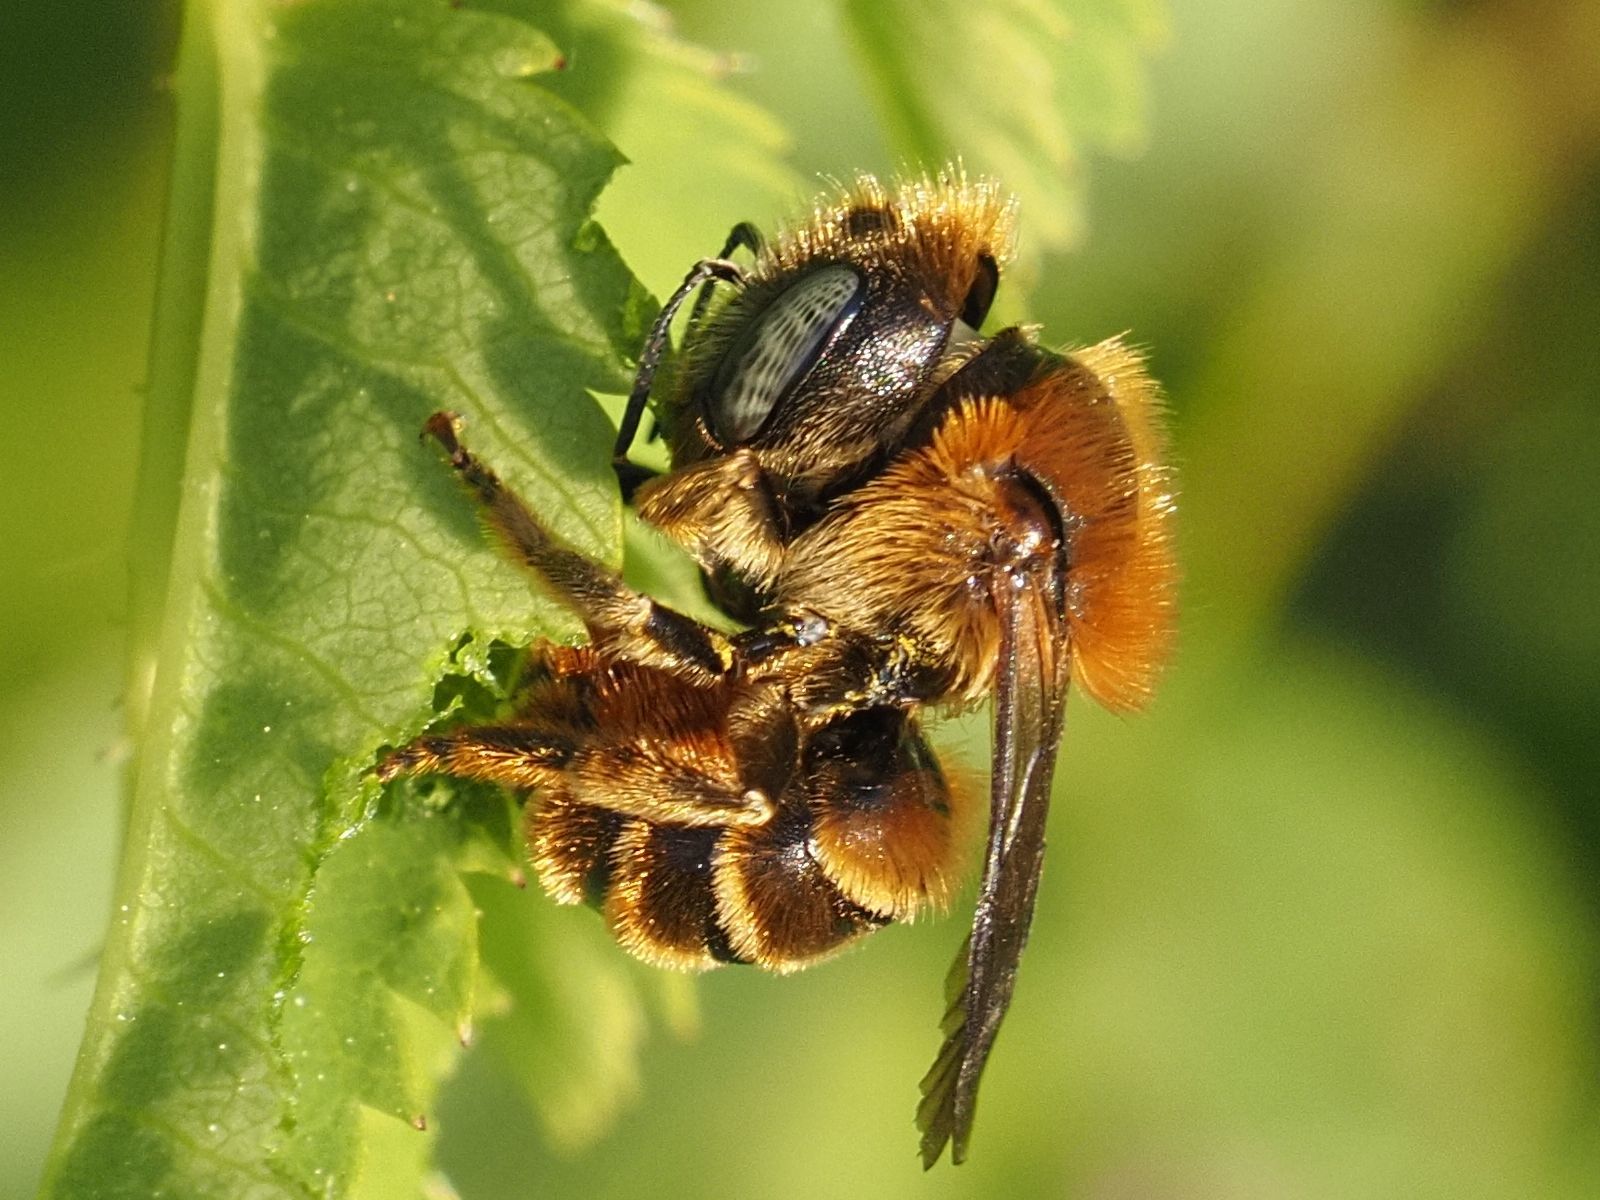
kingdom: Animalia
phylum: Arthropoda
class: Insecta
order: Hymenoptera
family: Megachilidae
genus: Osmia
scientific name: Osmia aurulenta
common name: Gold-fringed mason bee
